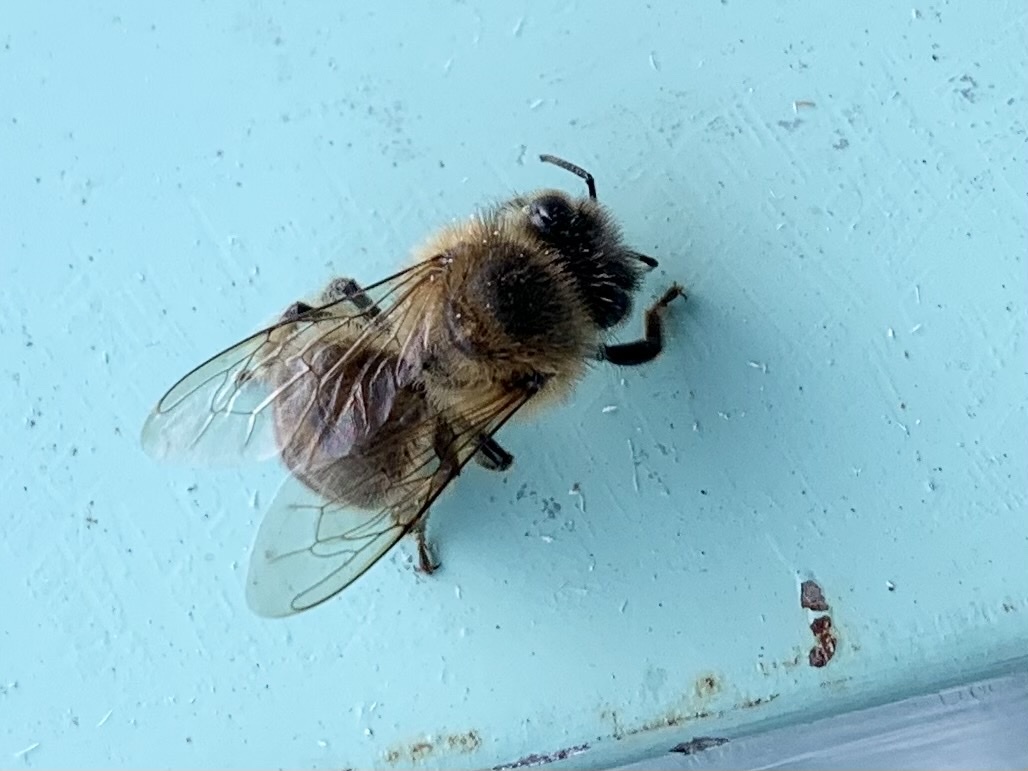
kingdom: Animalia
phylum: Arthropoda
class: Insecta
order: Hymenoptera
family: Apidae
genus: Apis
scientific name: Apis mellifera
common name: Honey bee
